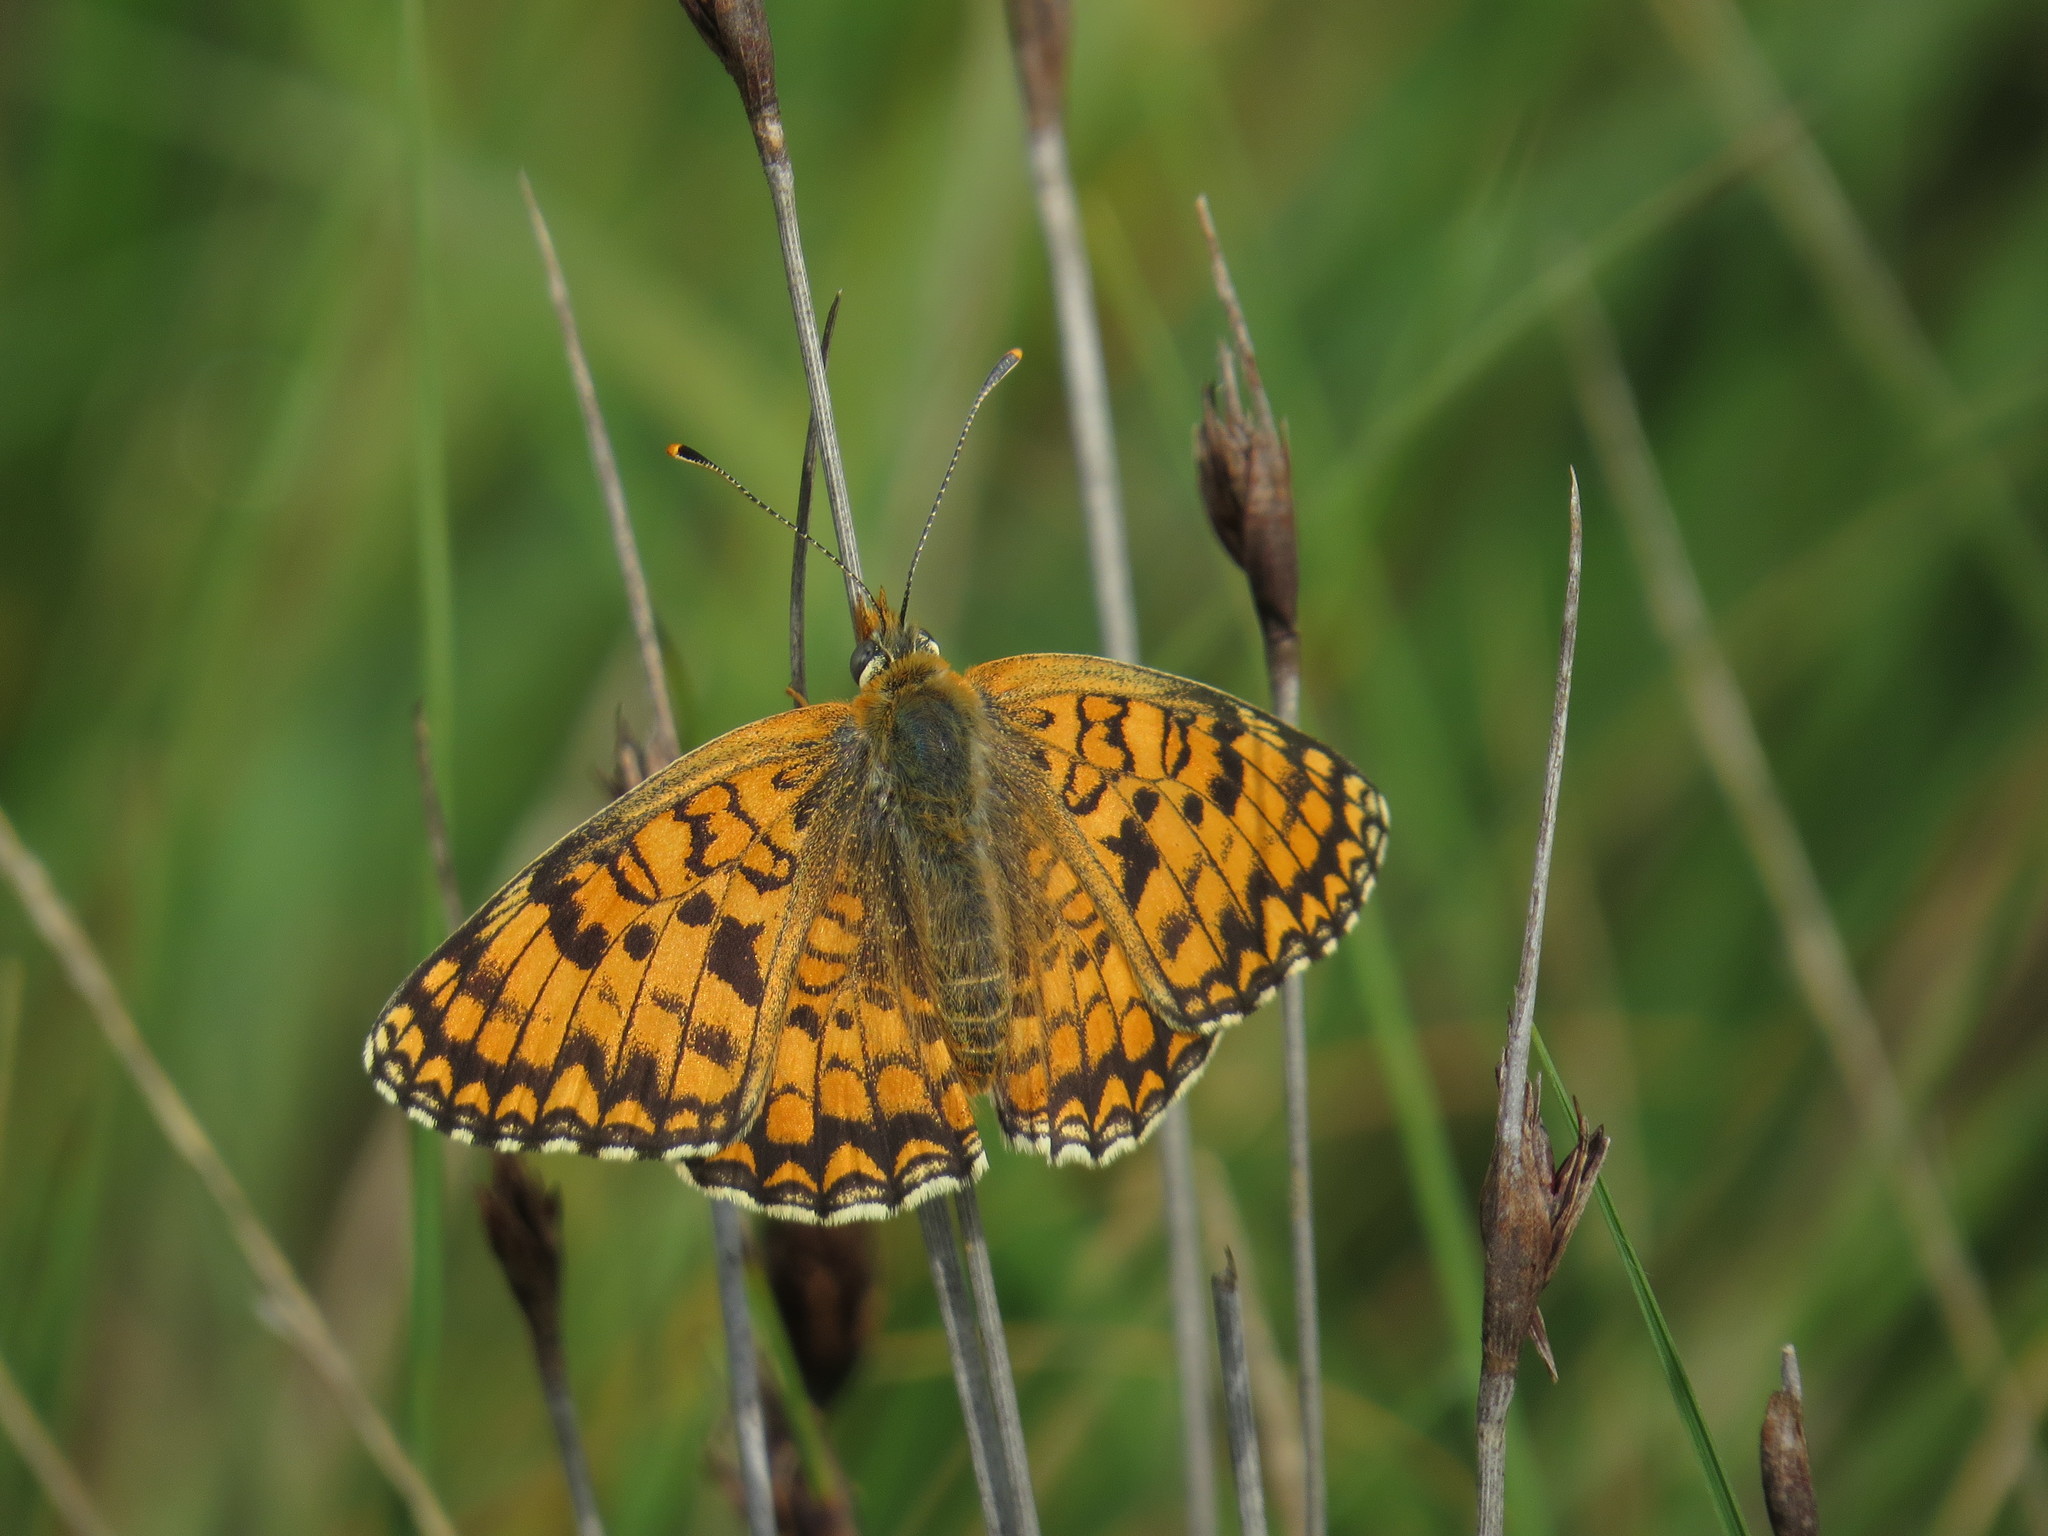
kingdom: Animalia
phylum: Arthropoda
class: Insecta
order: Lepidoptera
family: Nymphalidae
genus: Melitaea
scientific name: Melitaea phoebe
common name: Knapweed fritillary
